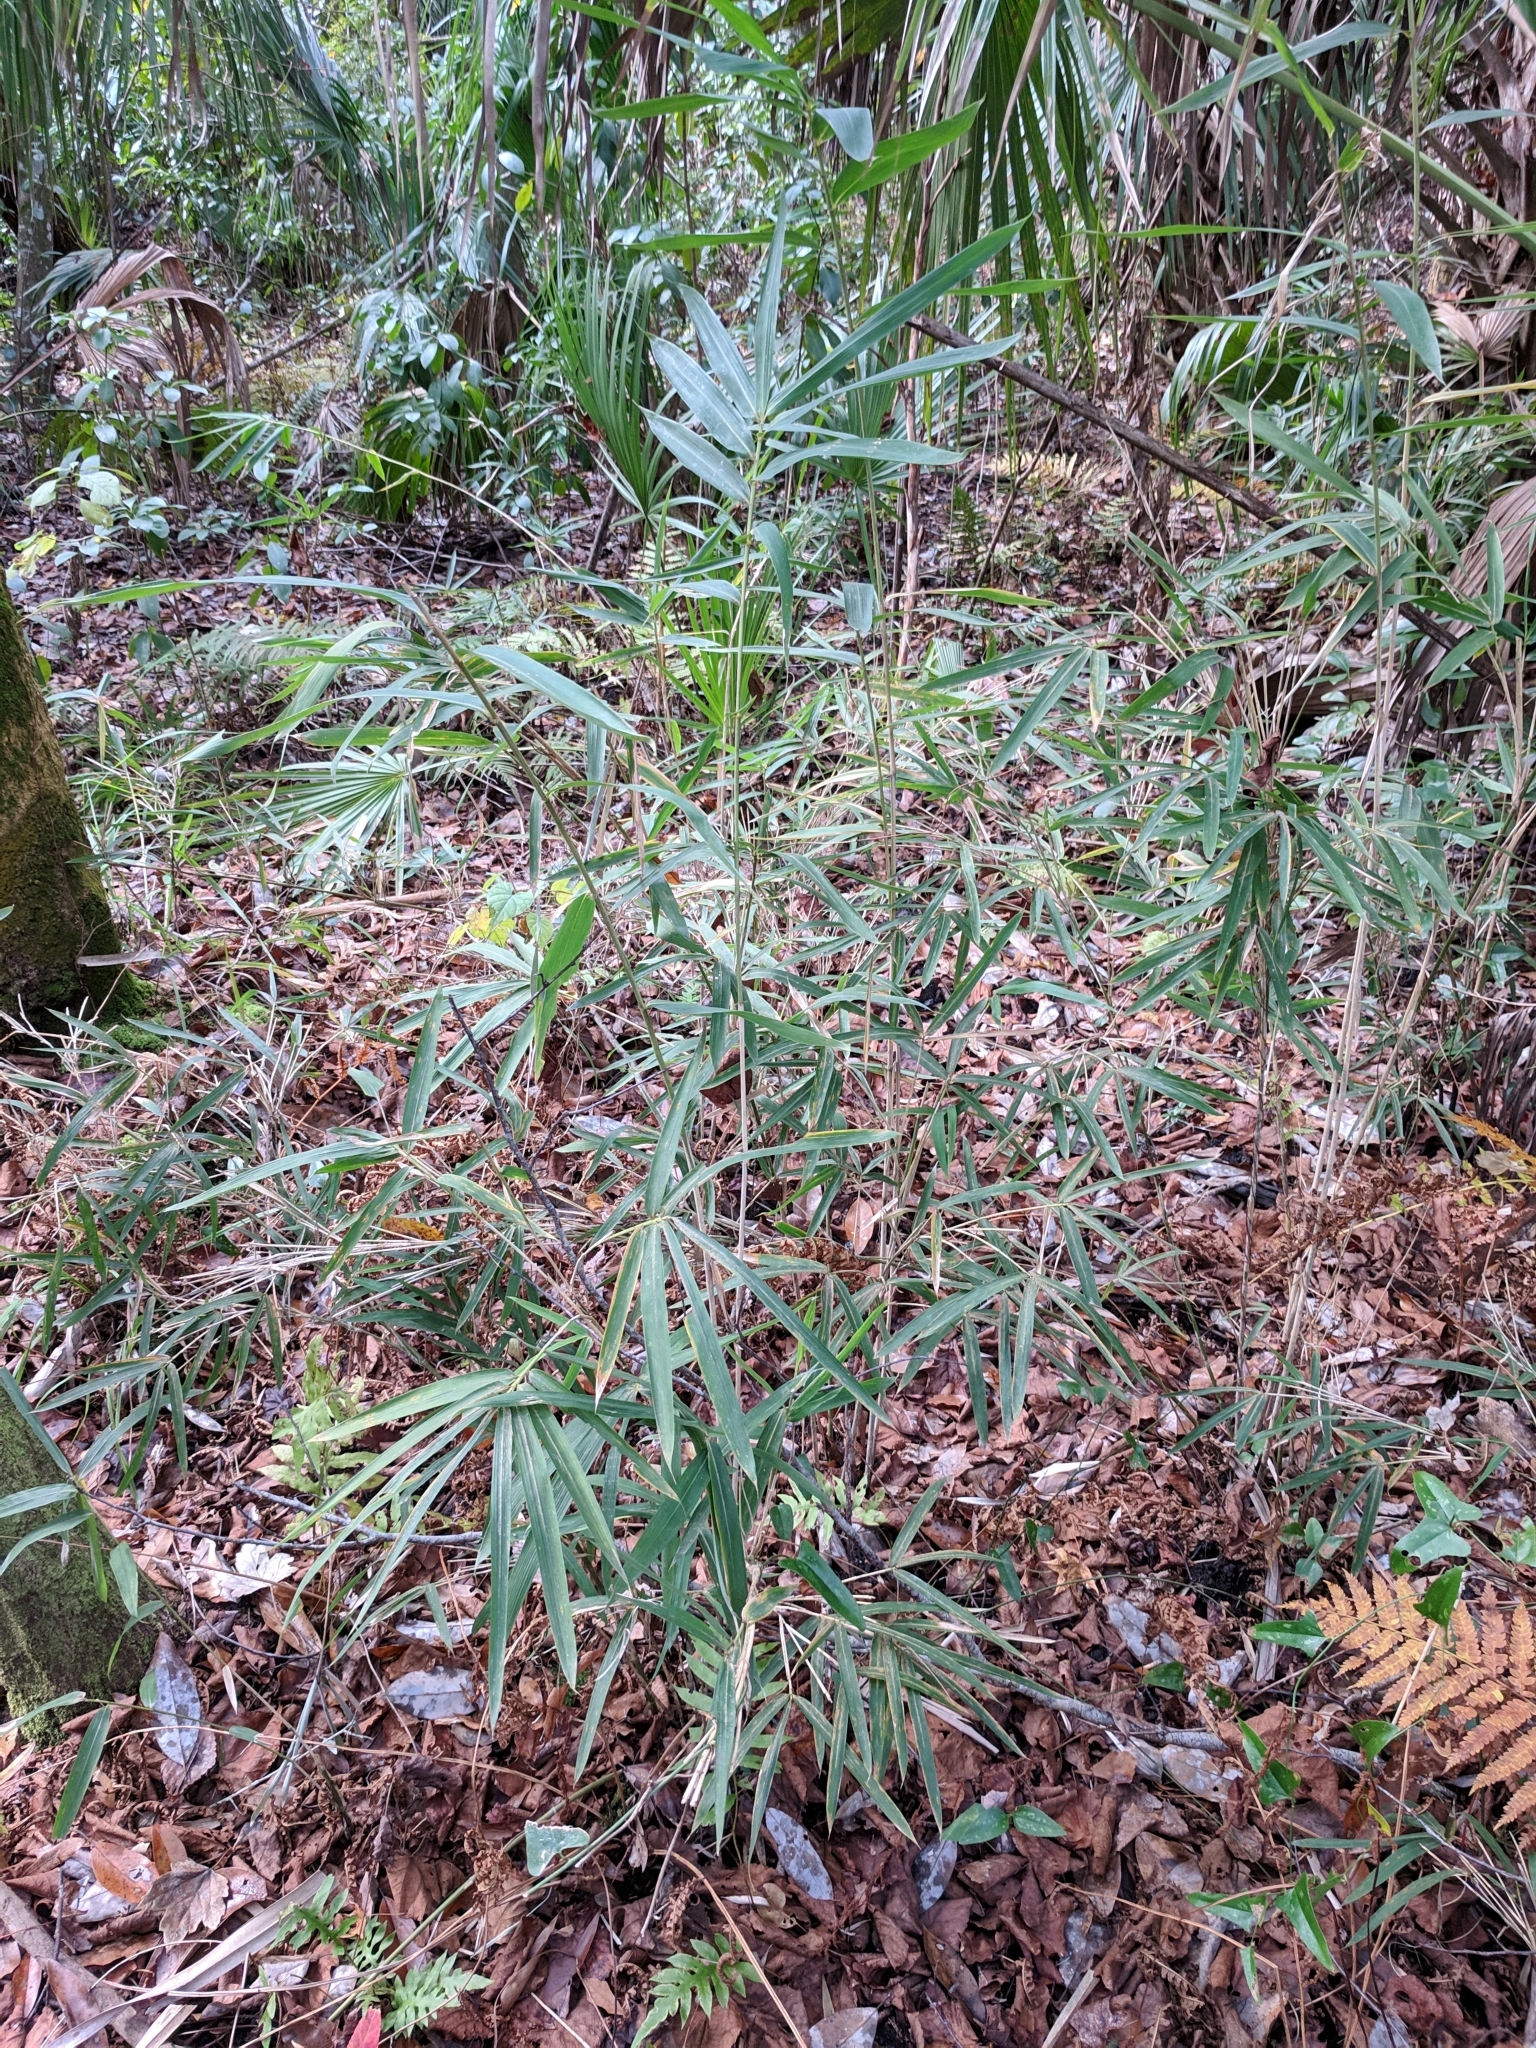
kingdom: Plantae
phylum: Tracheophyta
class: Liliopsida
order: Poales
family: Poaceae
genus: Arundinaria
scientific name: Arundinaria tecta
